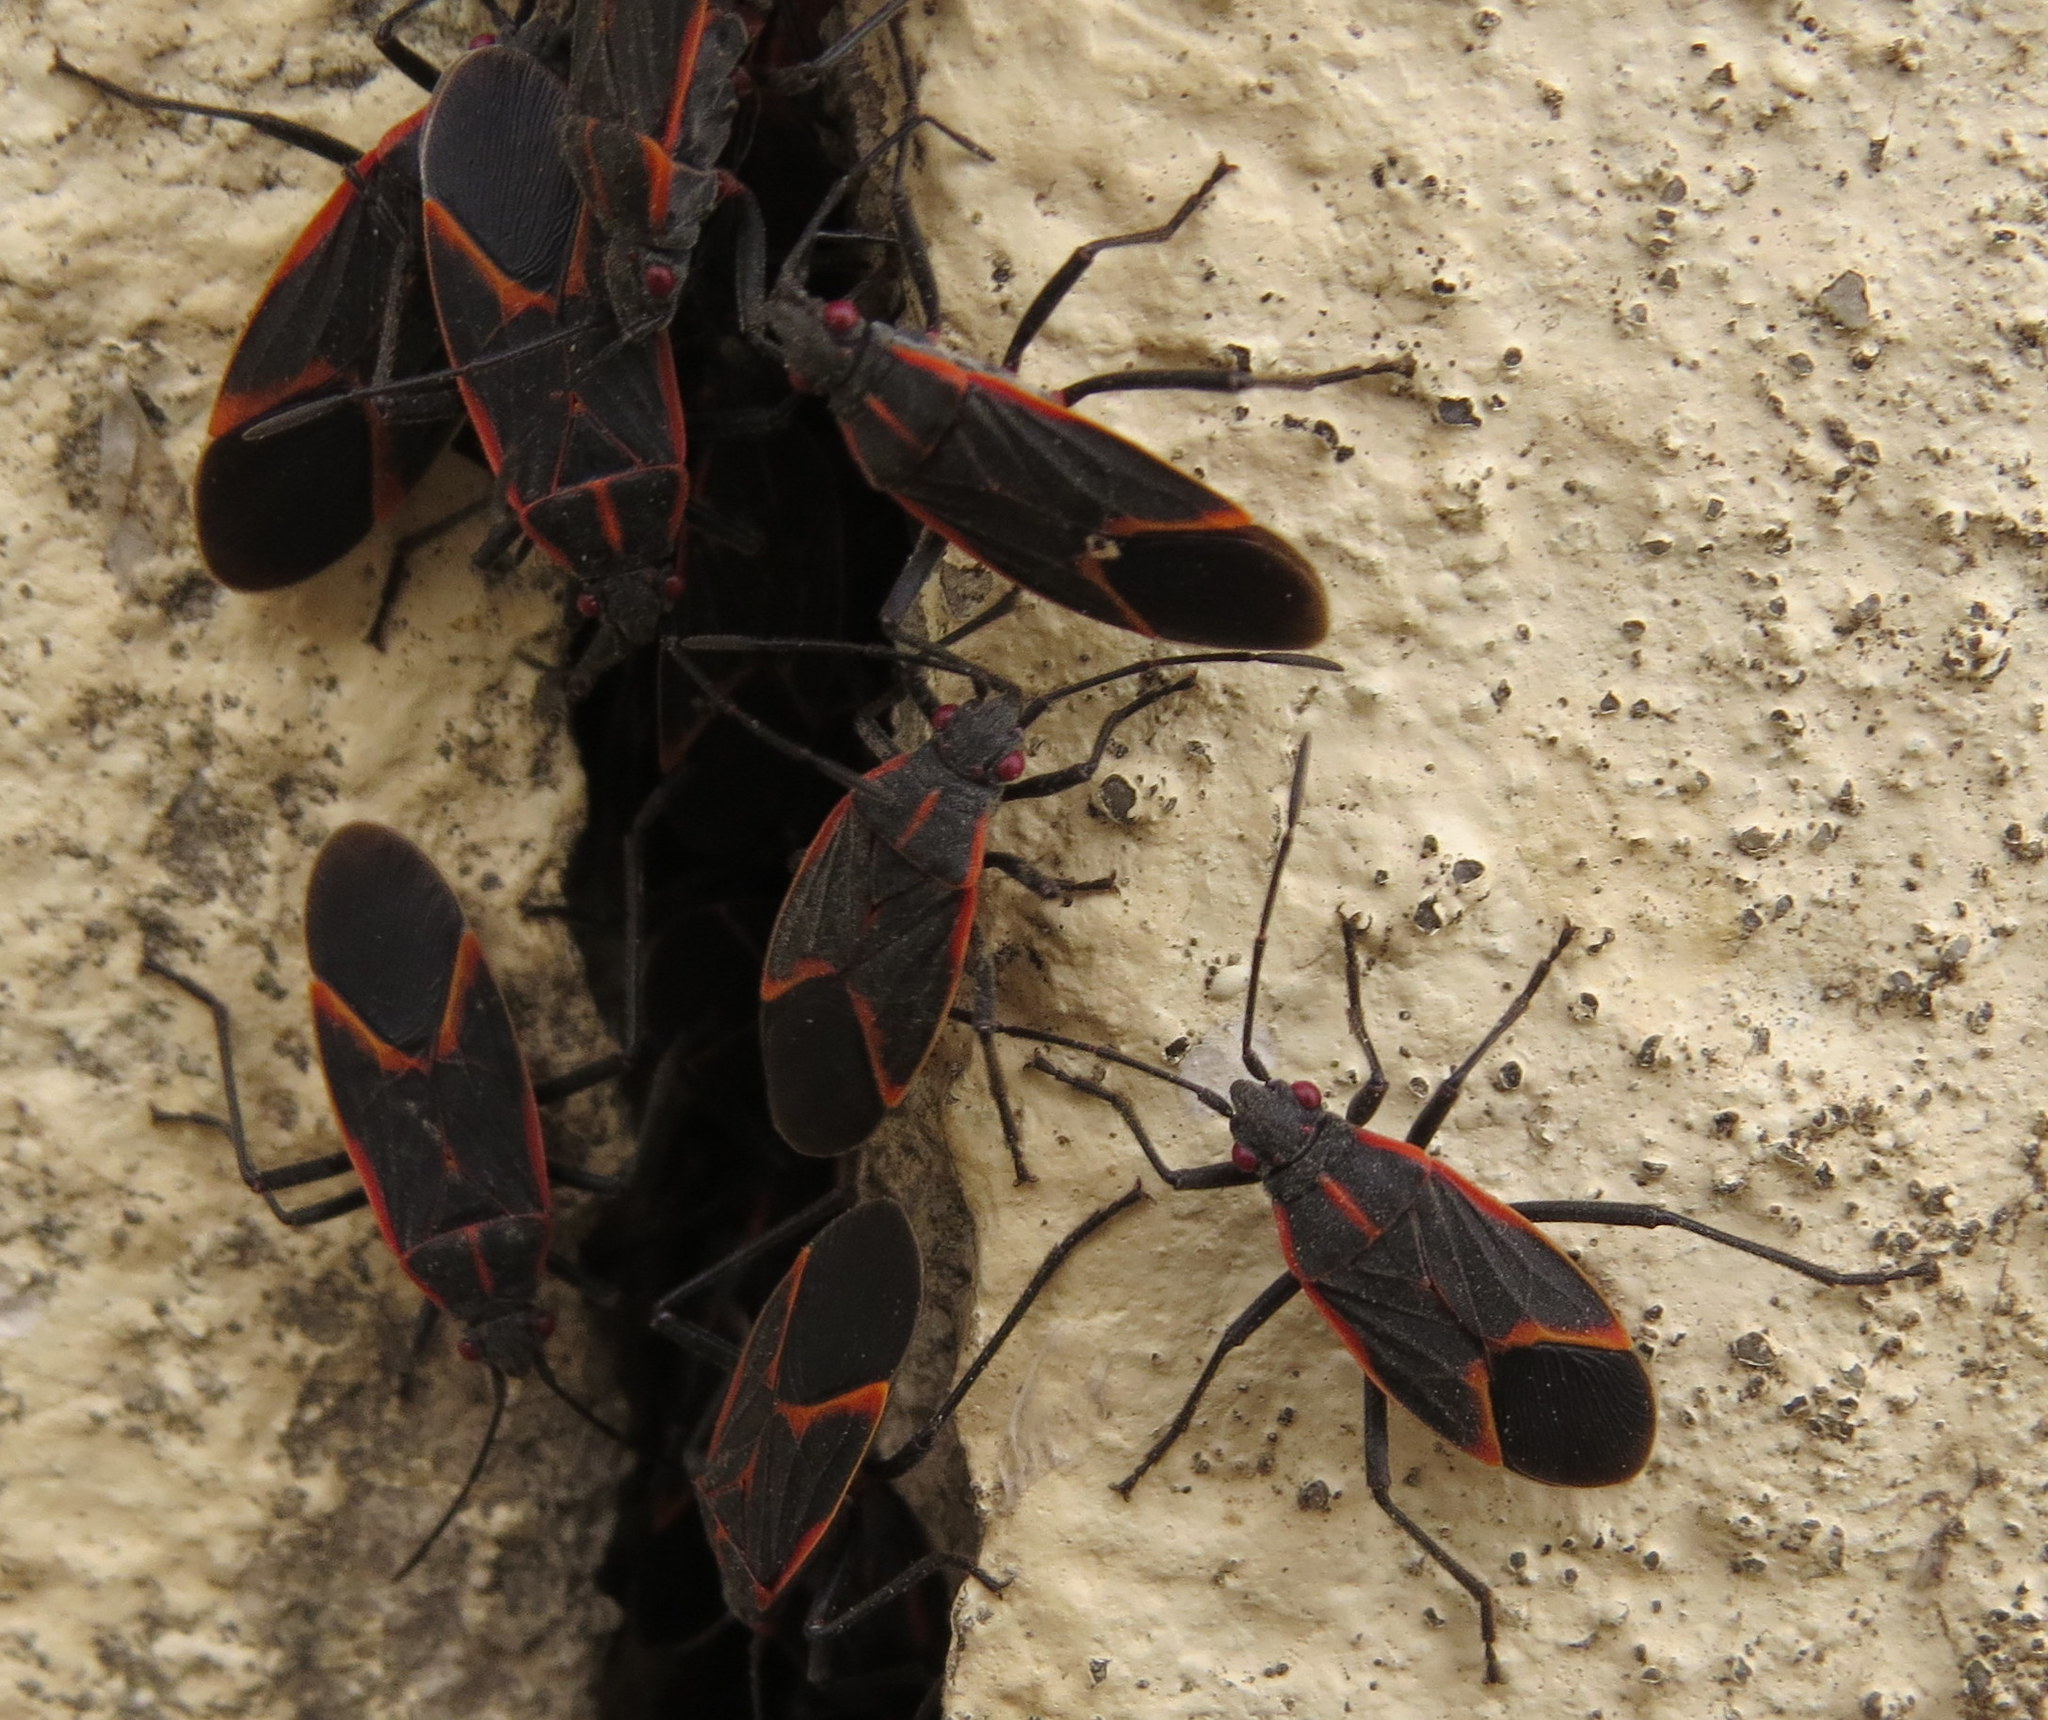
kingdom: Animalia
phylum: Arthropoda
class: Insecta
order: Hemiptera
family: Rhopalidae
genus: Boisea
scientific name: Boisea trivittata
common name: Boxelder bug
